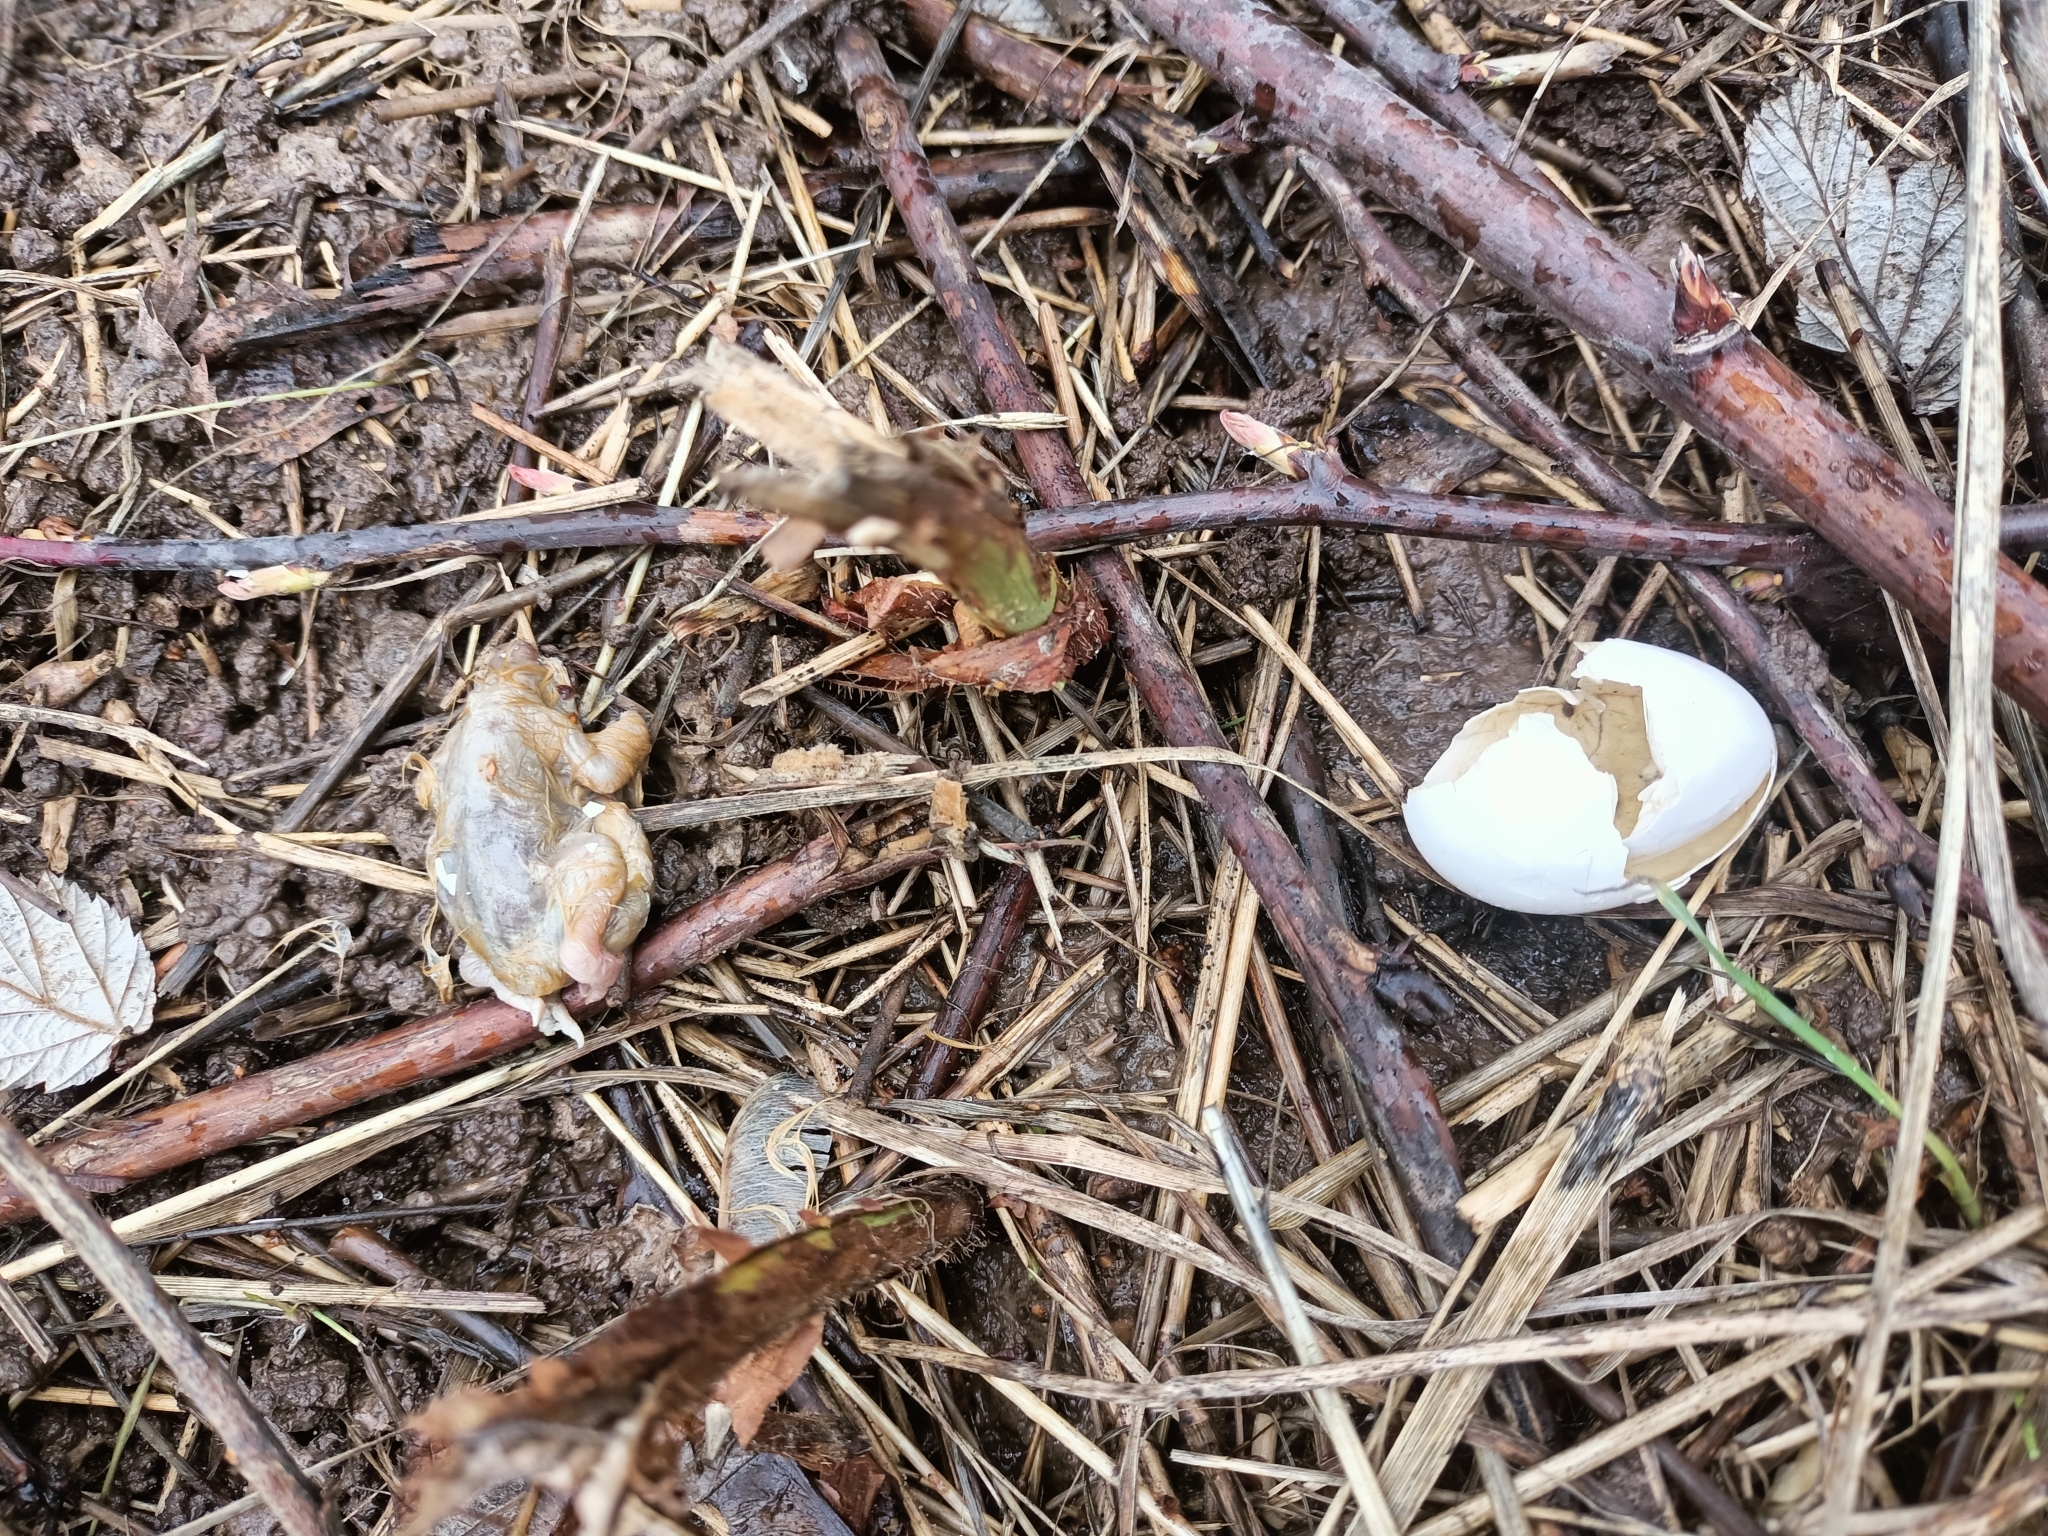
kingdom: Animalia
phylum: Chordata
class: Aves
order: Columbiformes
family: Columbidae
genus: Columba
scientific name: Columba livia
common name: Rock pigeon
